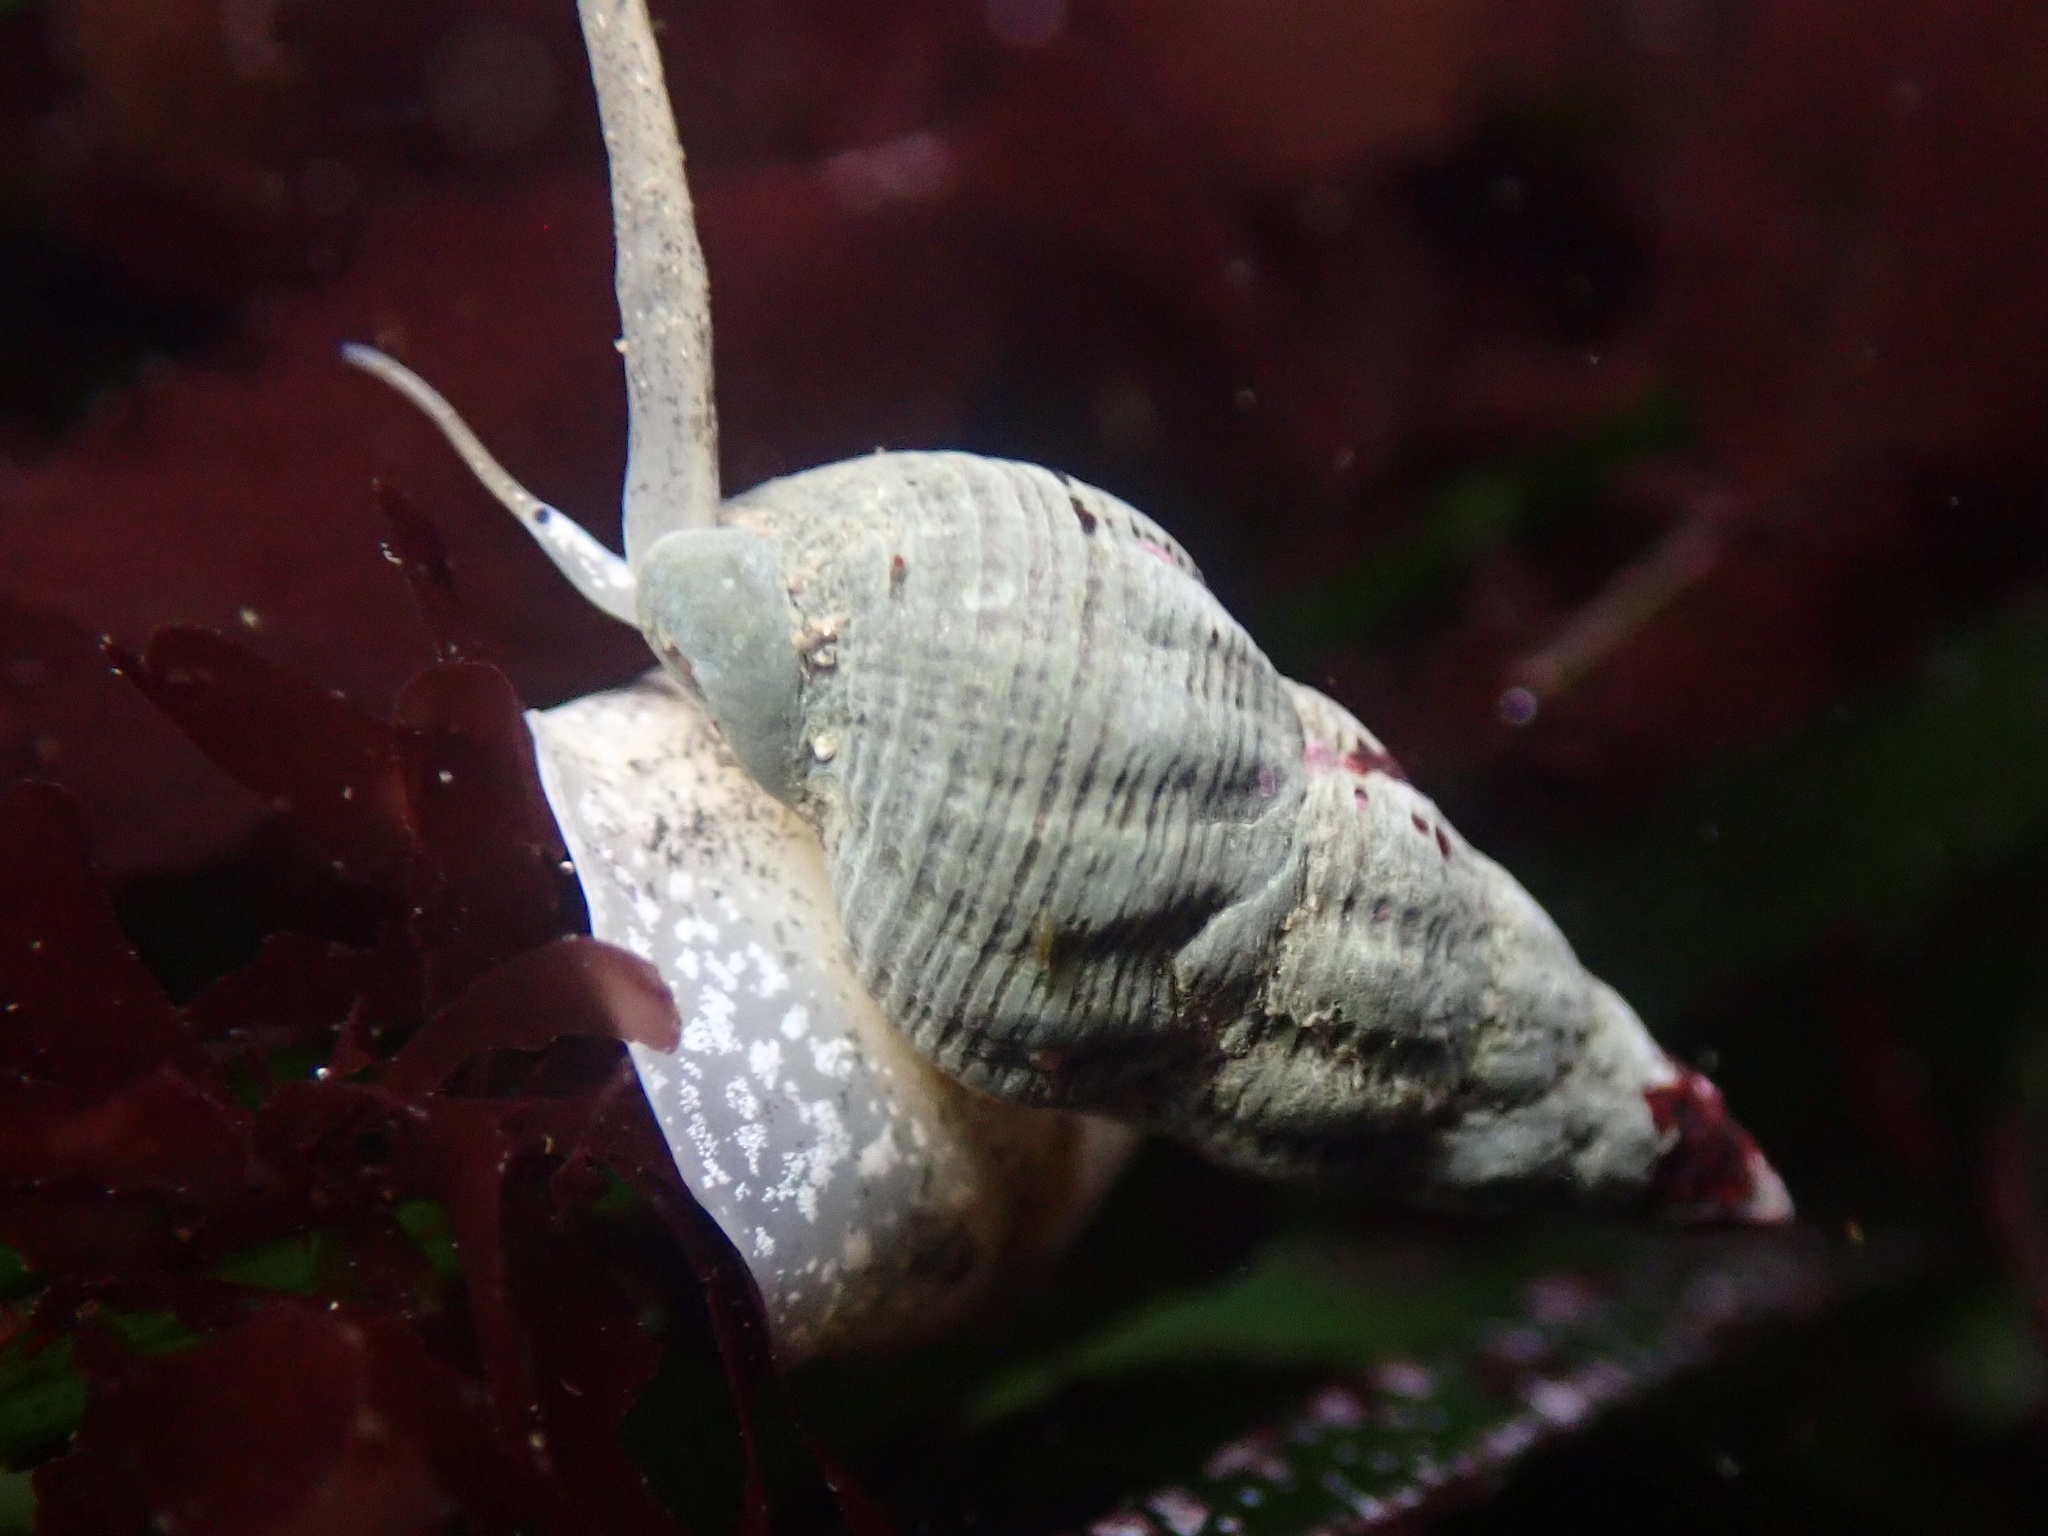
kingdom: Animalia
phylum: Mollusca
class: Gastropoda
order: Neogastropoda
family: Nassariidae
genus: Nassarius
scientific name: Nassarius mendicus
